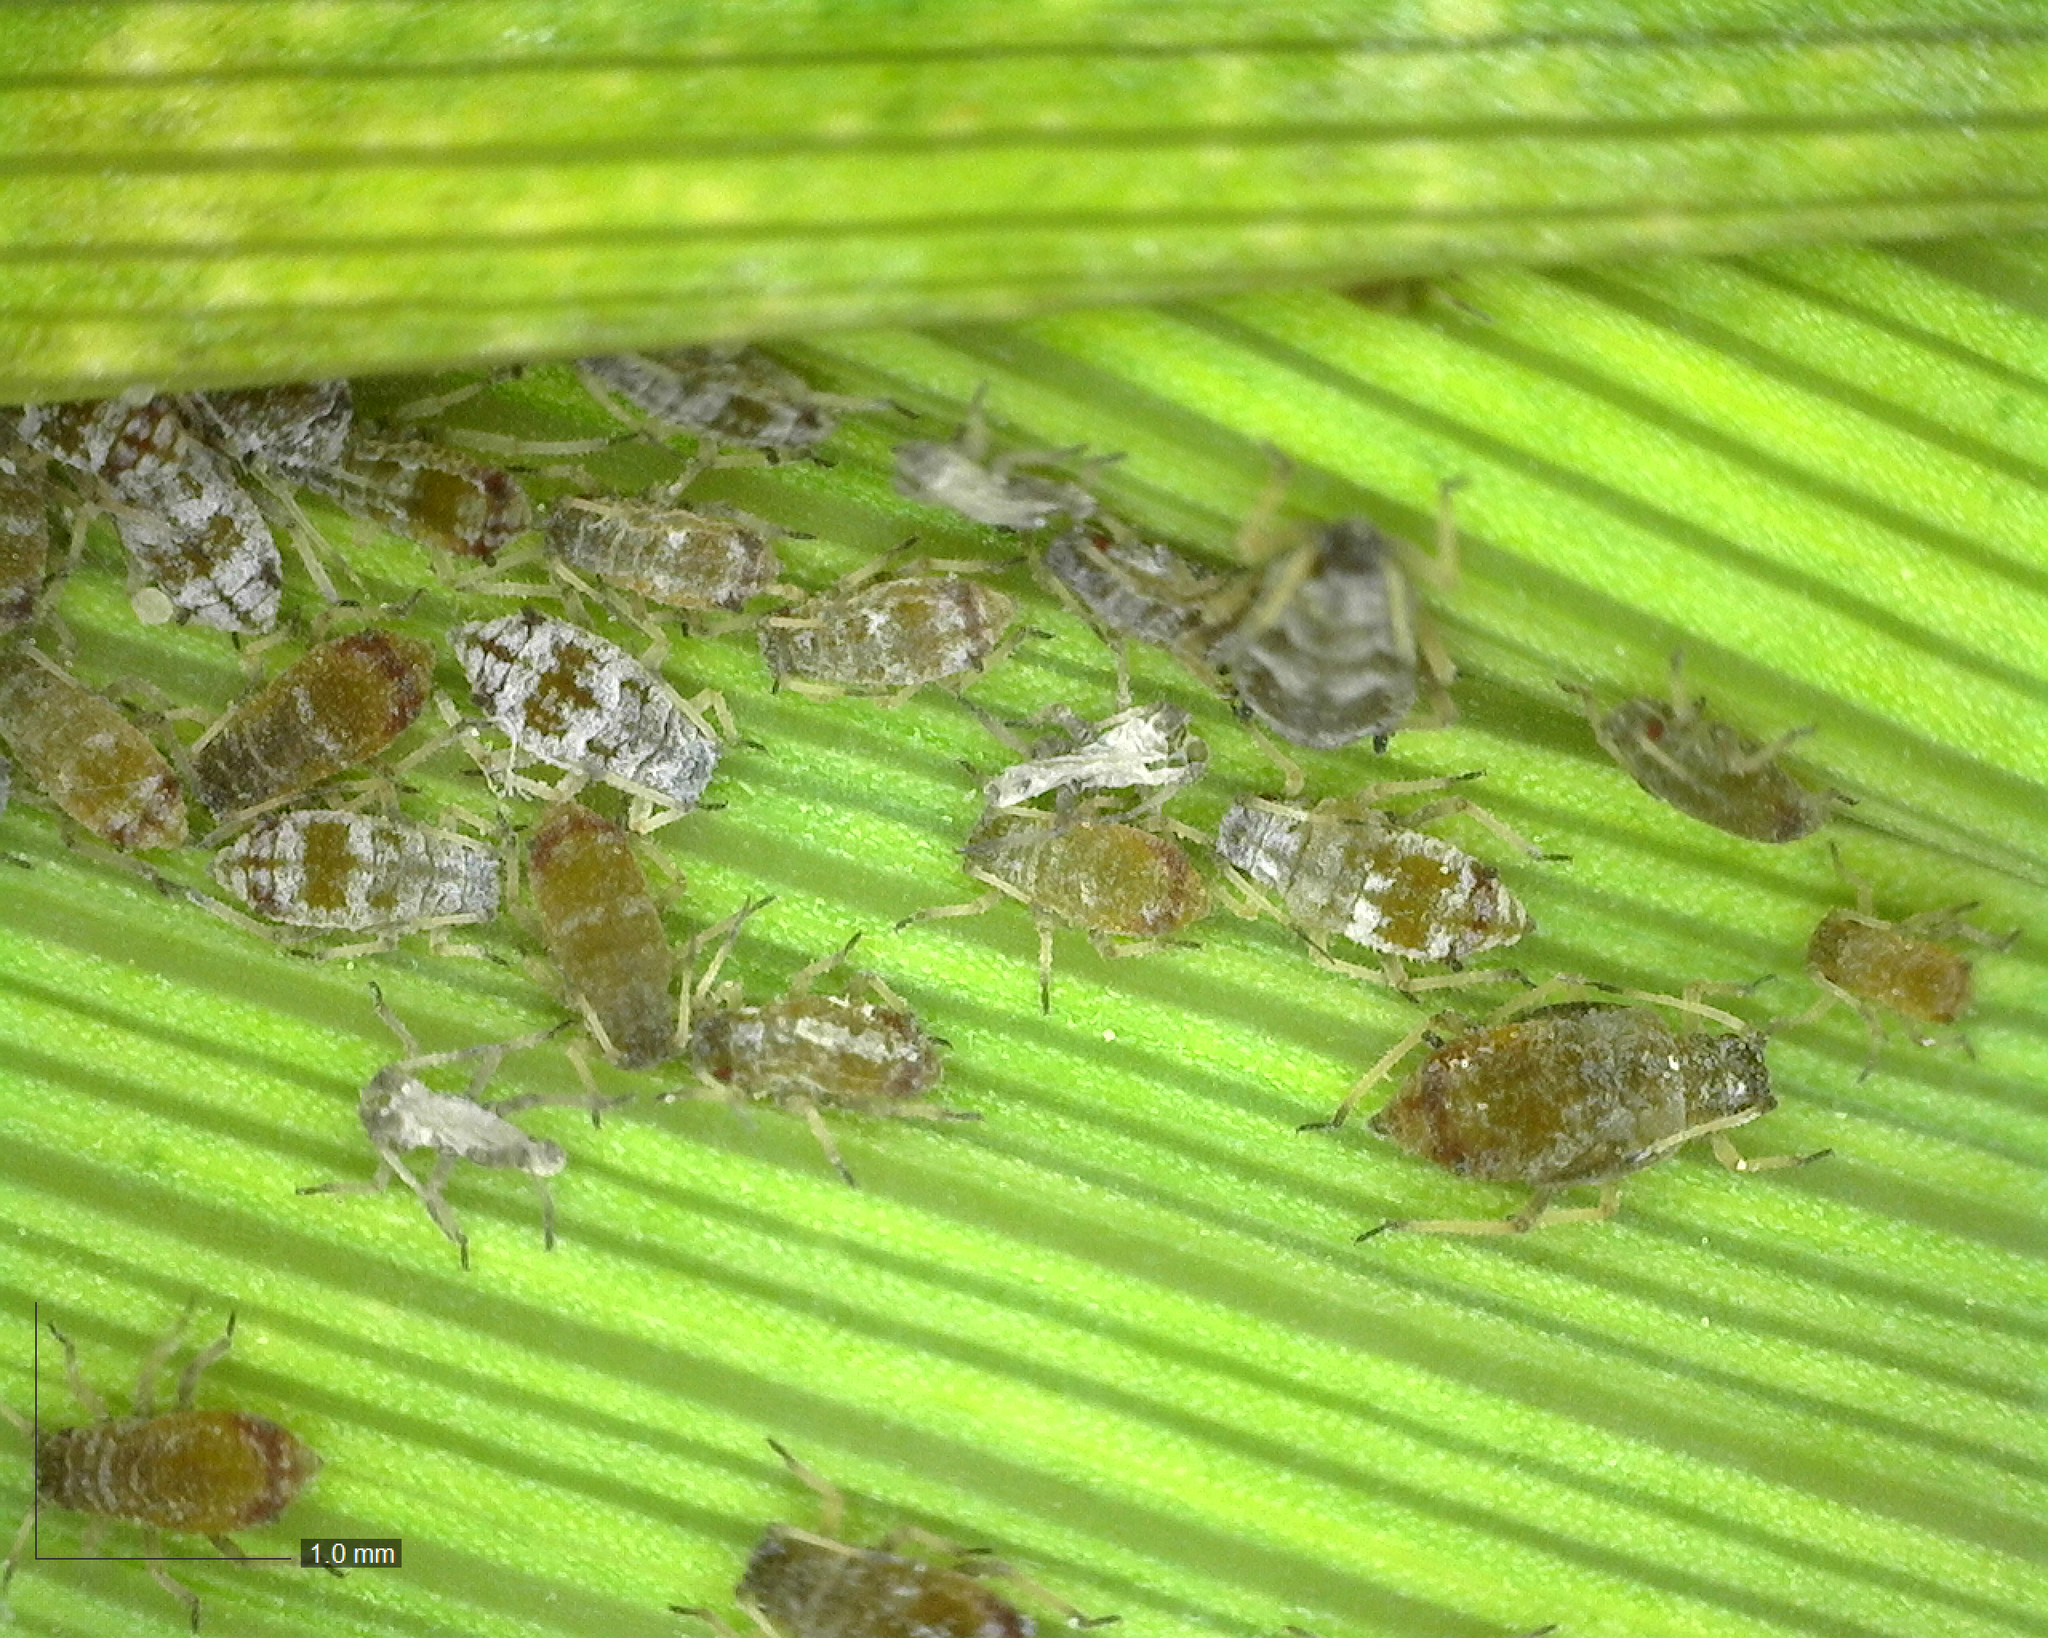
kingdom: Animalia
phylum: Arthropoda
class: Insecta
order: Hemiptera
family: Aphididae
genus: Melanaphis
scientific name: Melanaphis donacis
